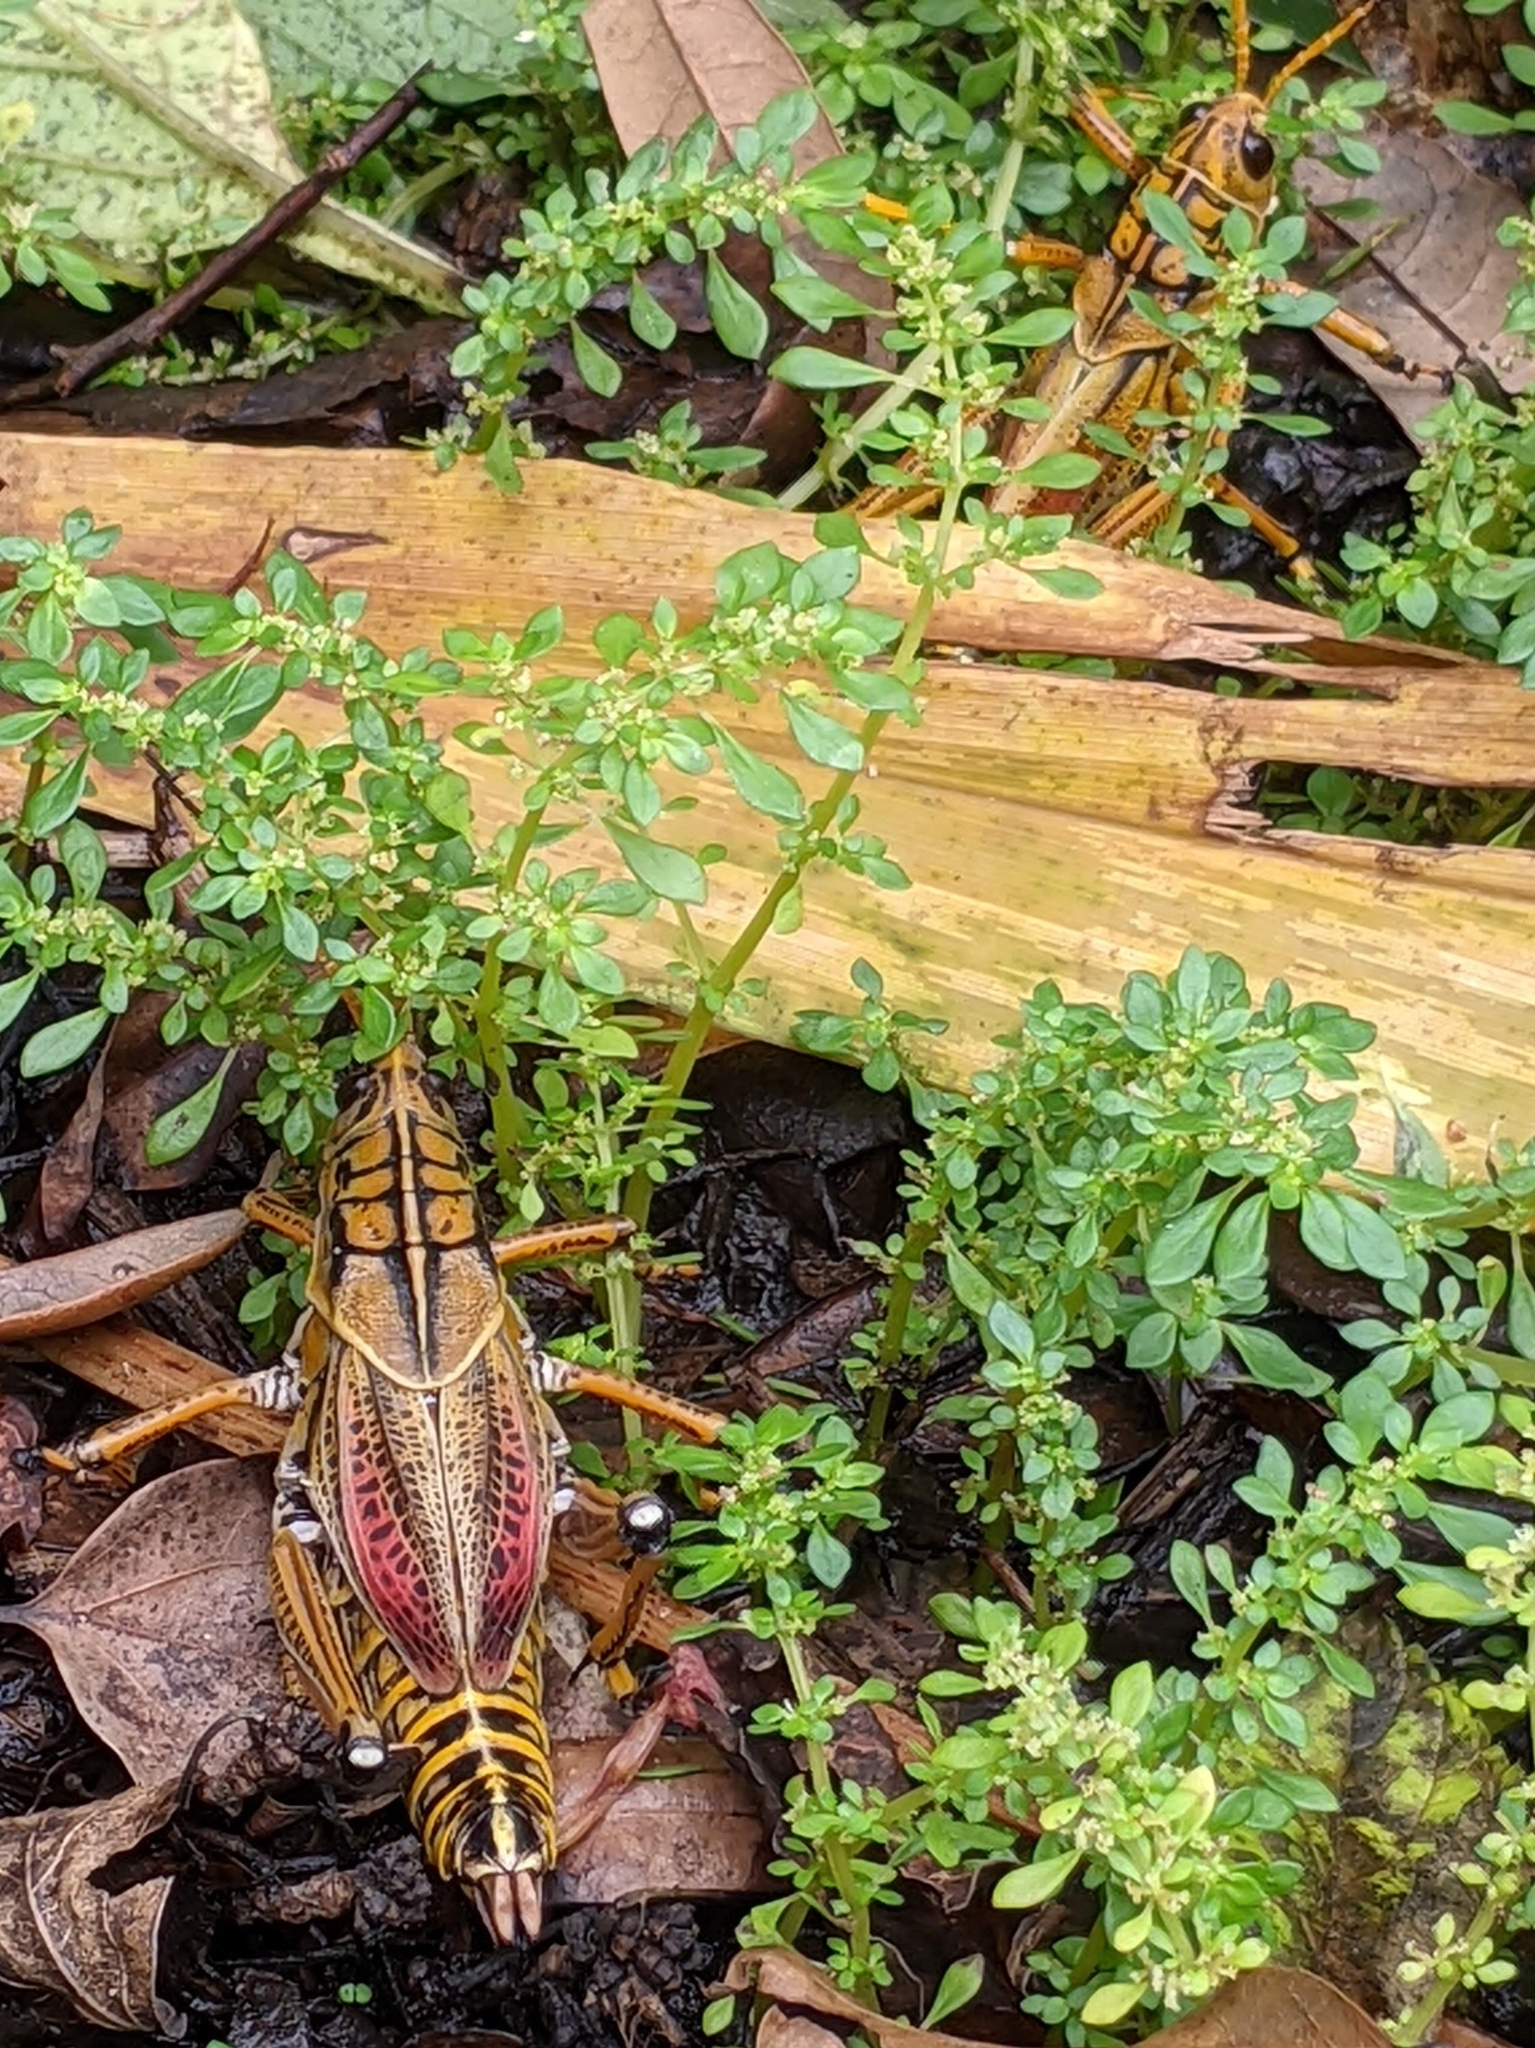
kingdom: Animalia
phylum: Arthropoda
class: Insecta
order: Orthoptera
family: Romaleidae
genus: Romalea
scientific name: Romalea microptera
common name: Eastern lubber grasshopper
